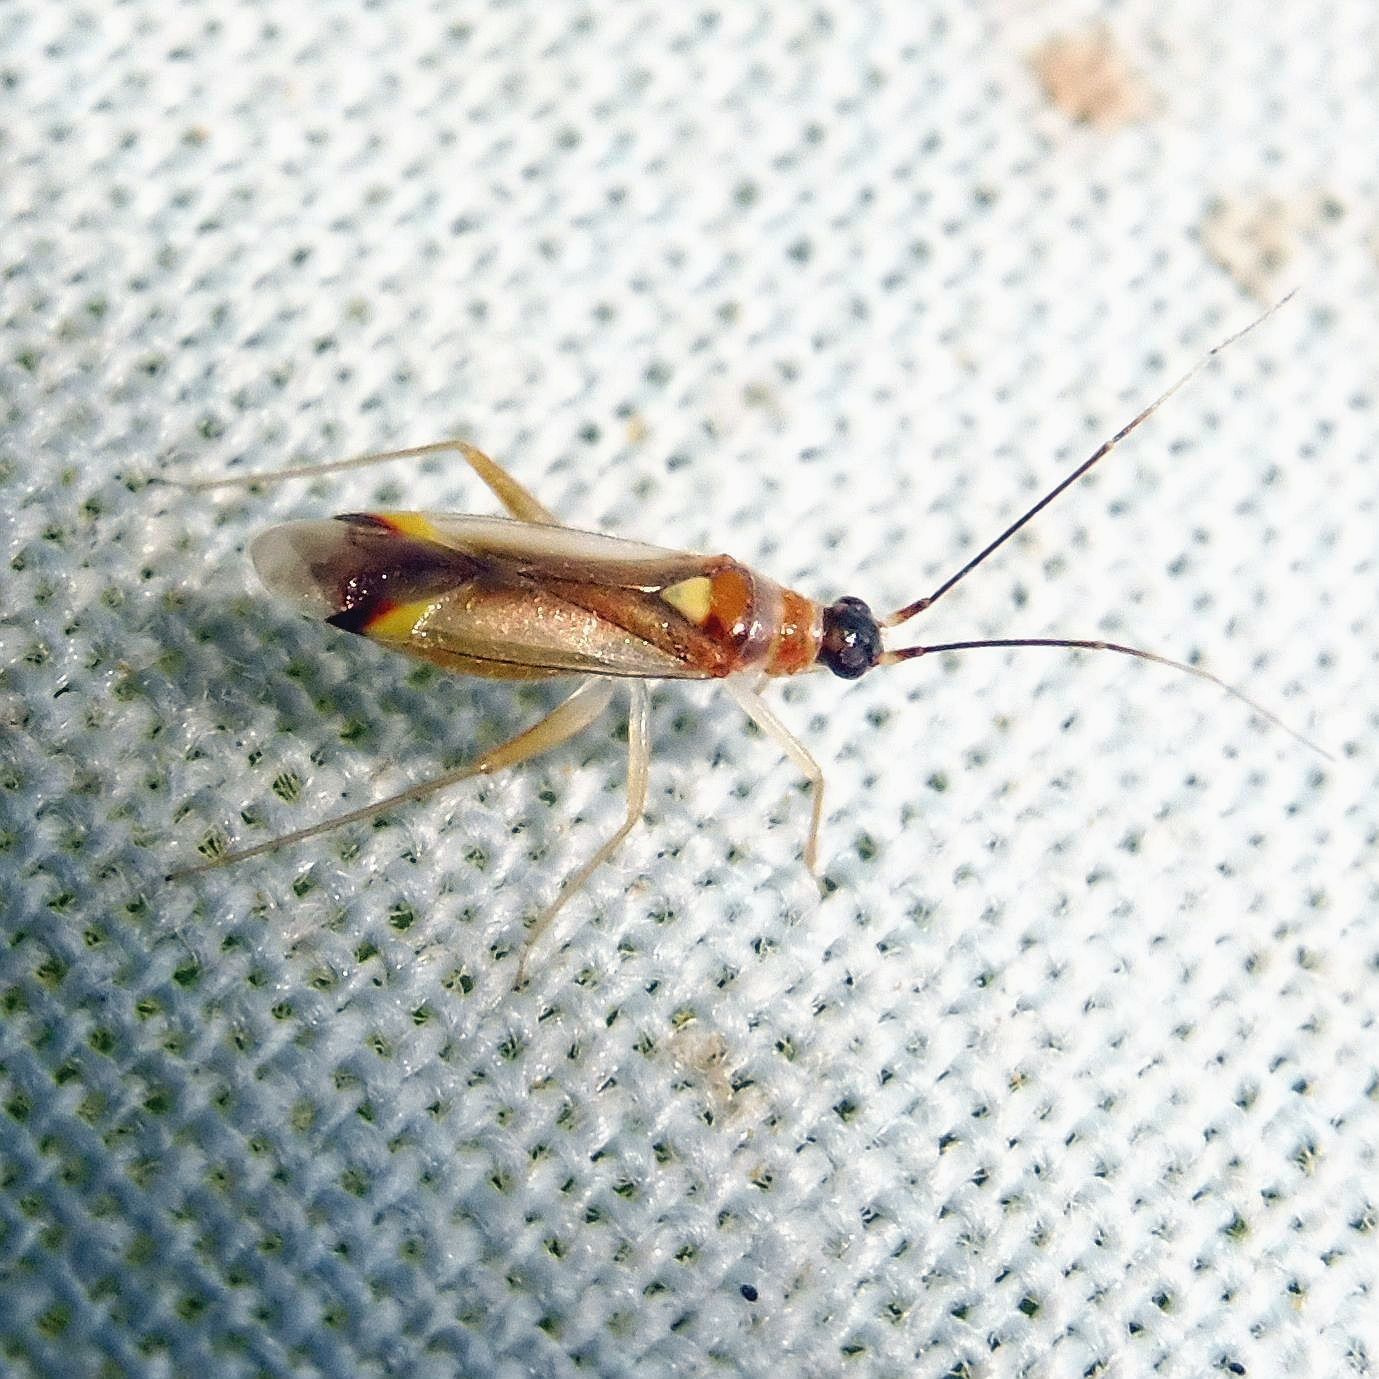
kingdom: Animalia
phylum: Arthropoda
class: Insecta
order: Hemiptera
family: Miridae
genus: Campyloneura
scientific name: Campyloneura virgula
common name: Predatory bug
